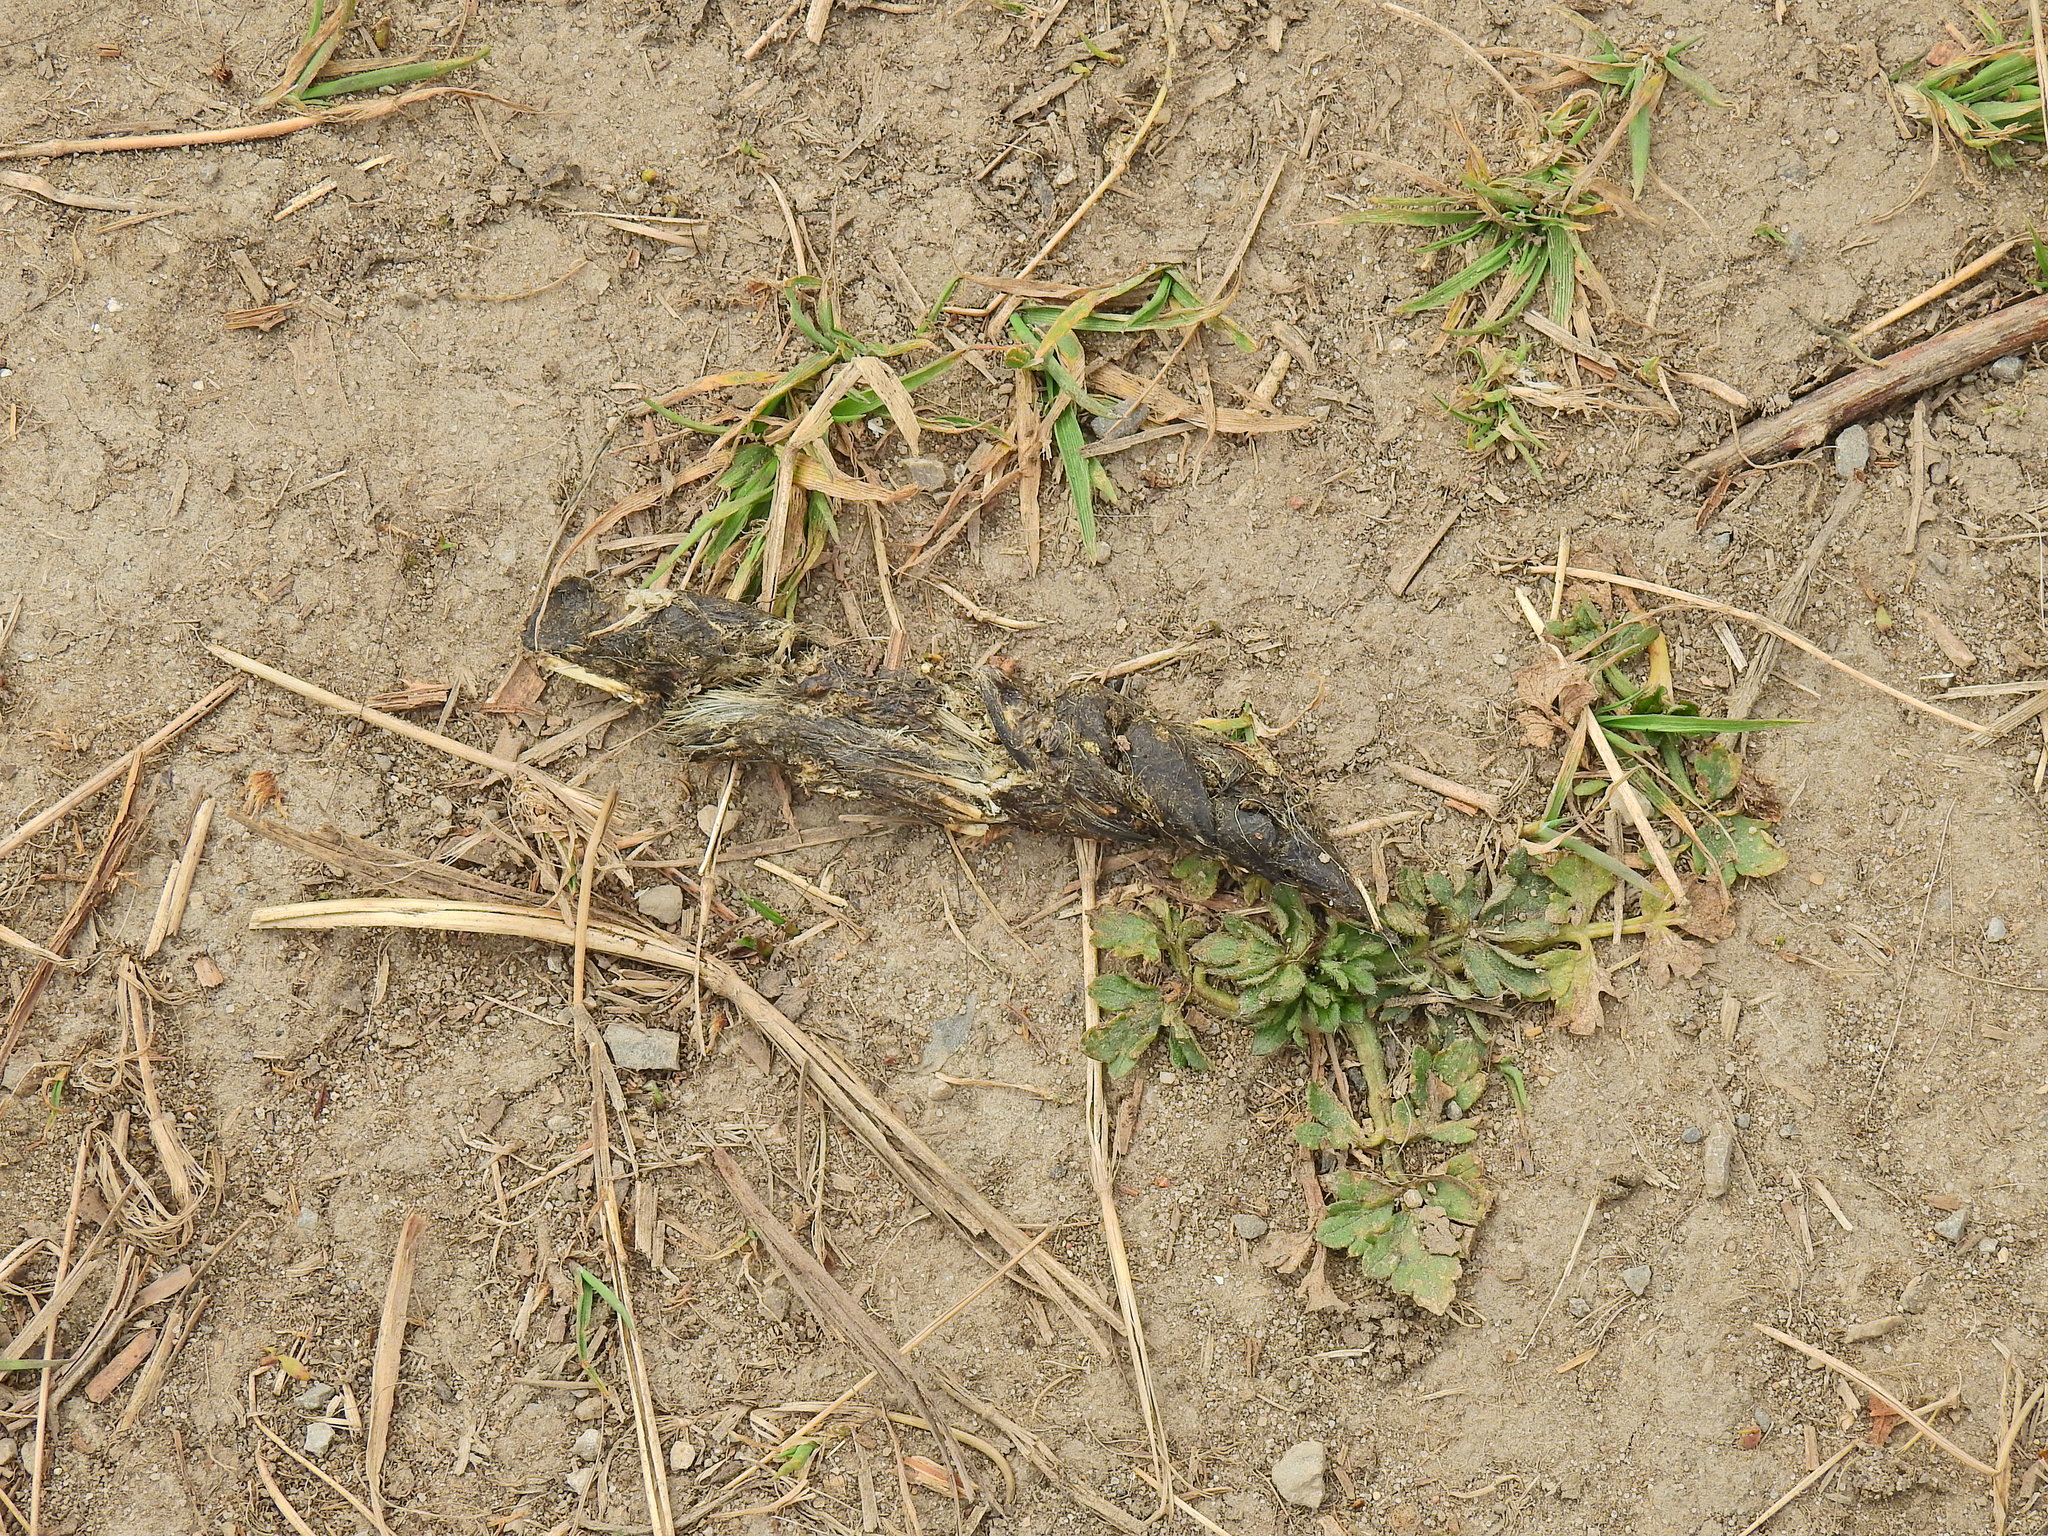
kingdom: Animalia
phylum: Chordata
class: Mammalia
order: Carnivora
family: Canidae
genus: Vulpes
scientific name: Vulpes vulpes
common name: Red fox
